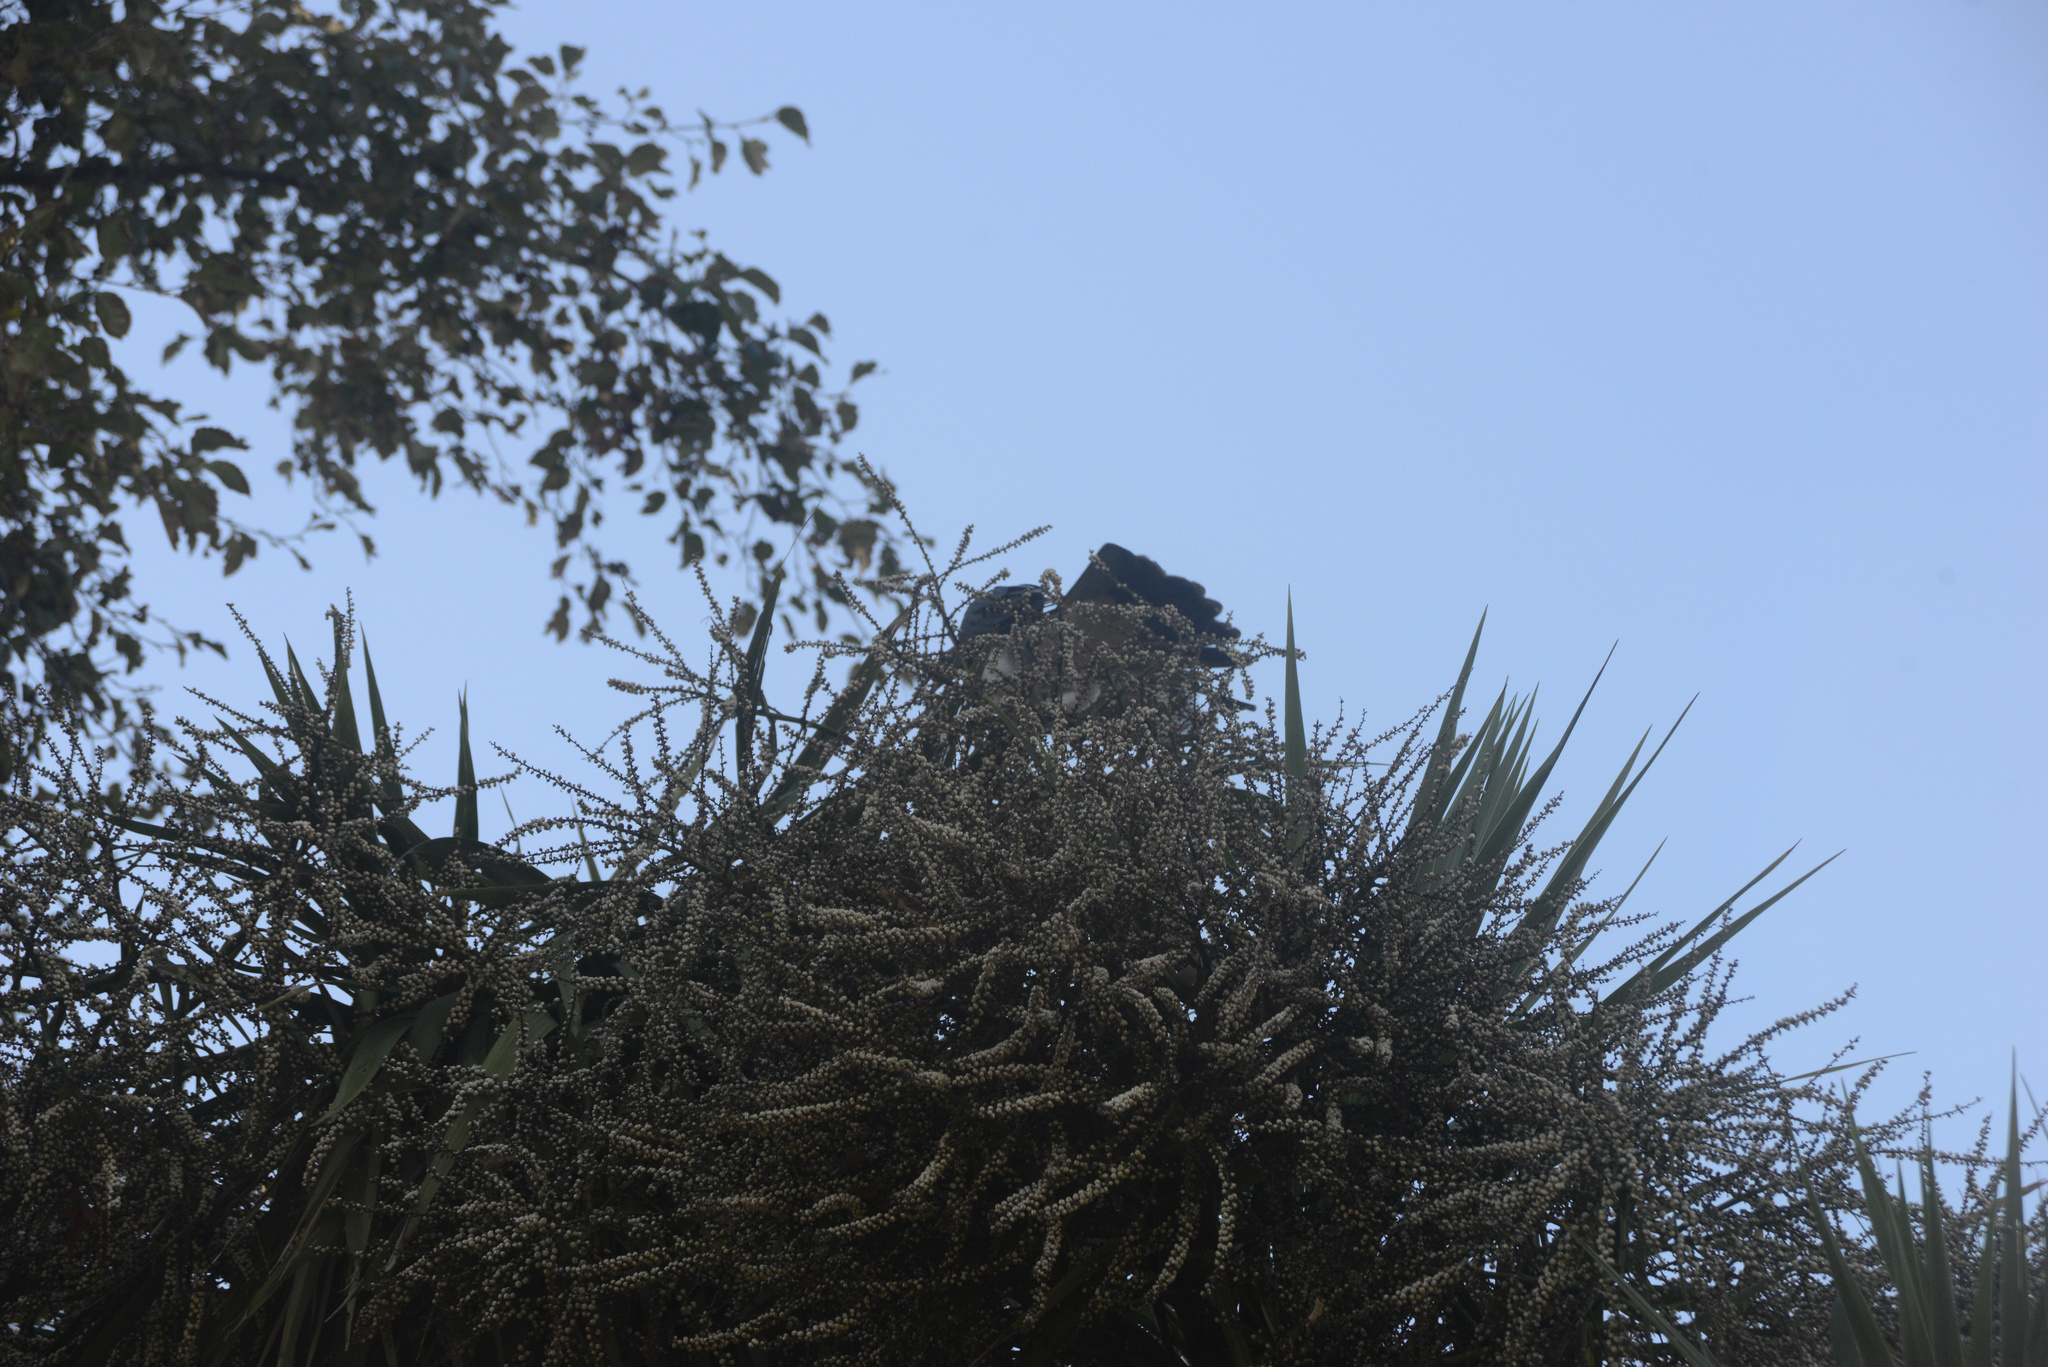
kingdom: Animalia
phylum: Chordata
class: Aves
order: Columbiformes
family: Columbidae
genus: Hemiphaga
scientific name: Hemiphaga novaeseelandiae
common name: New zealand pigeon
